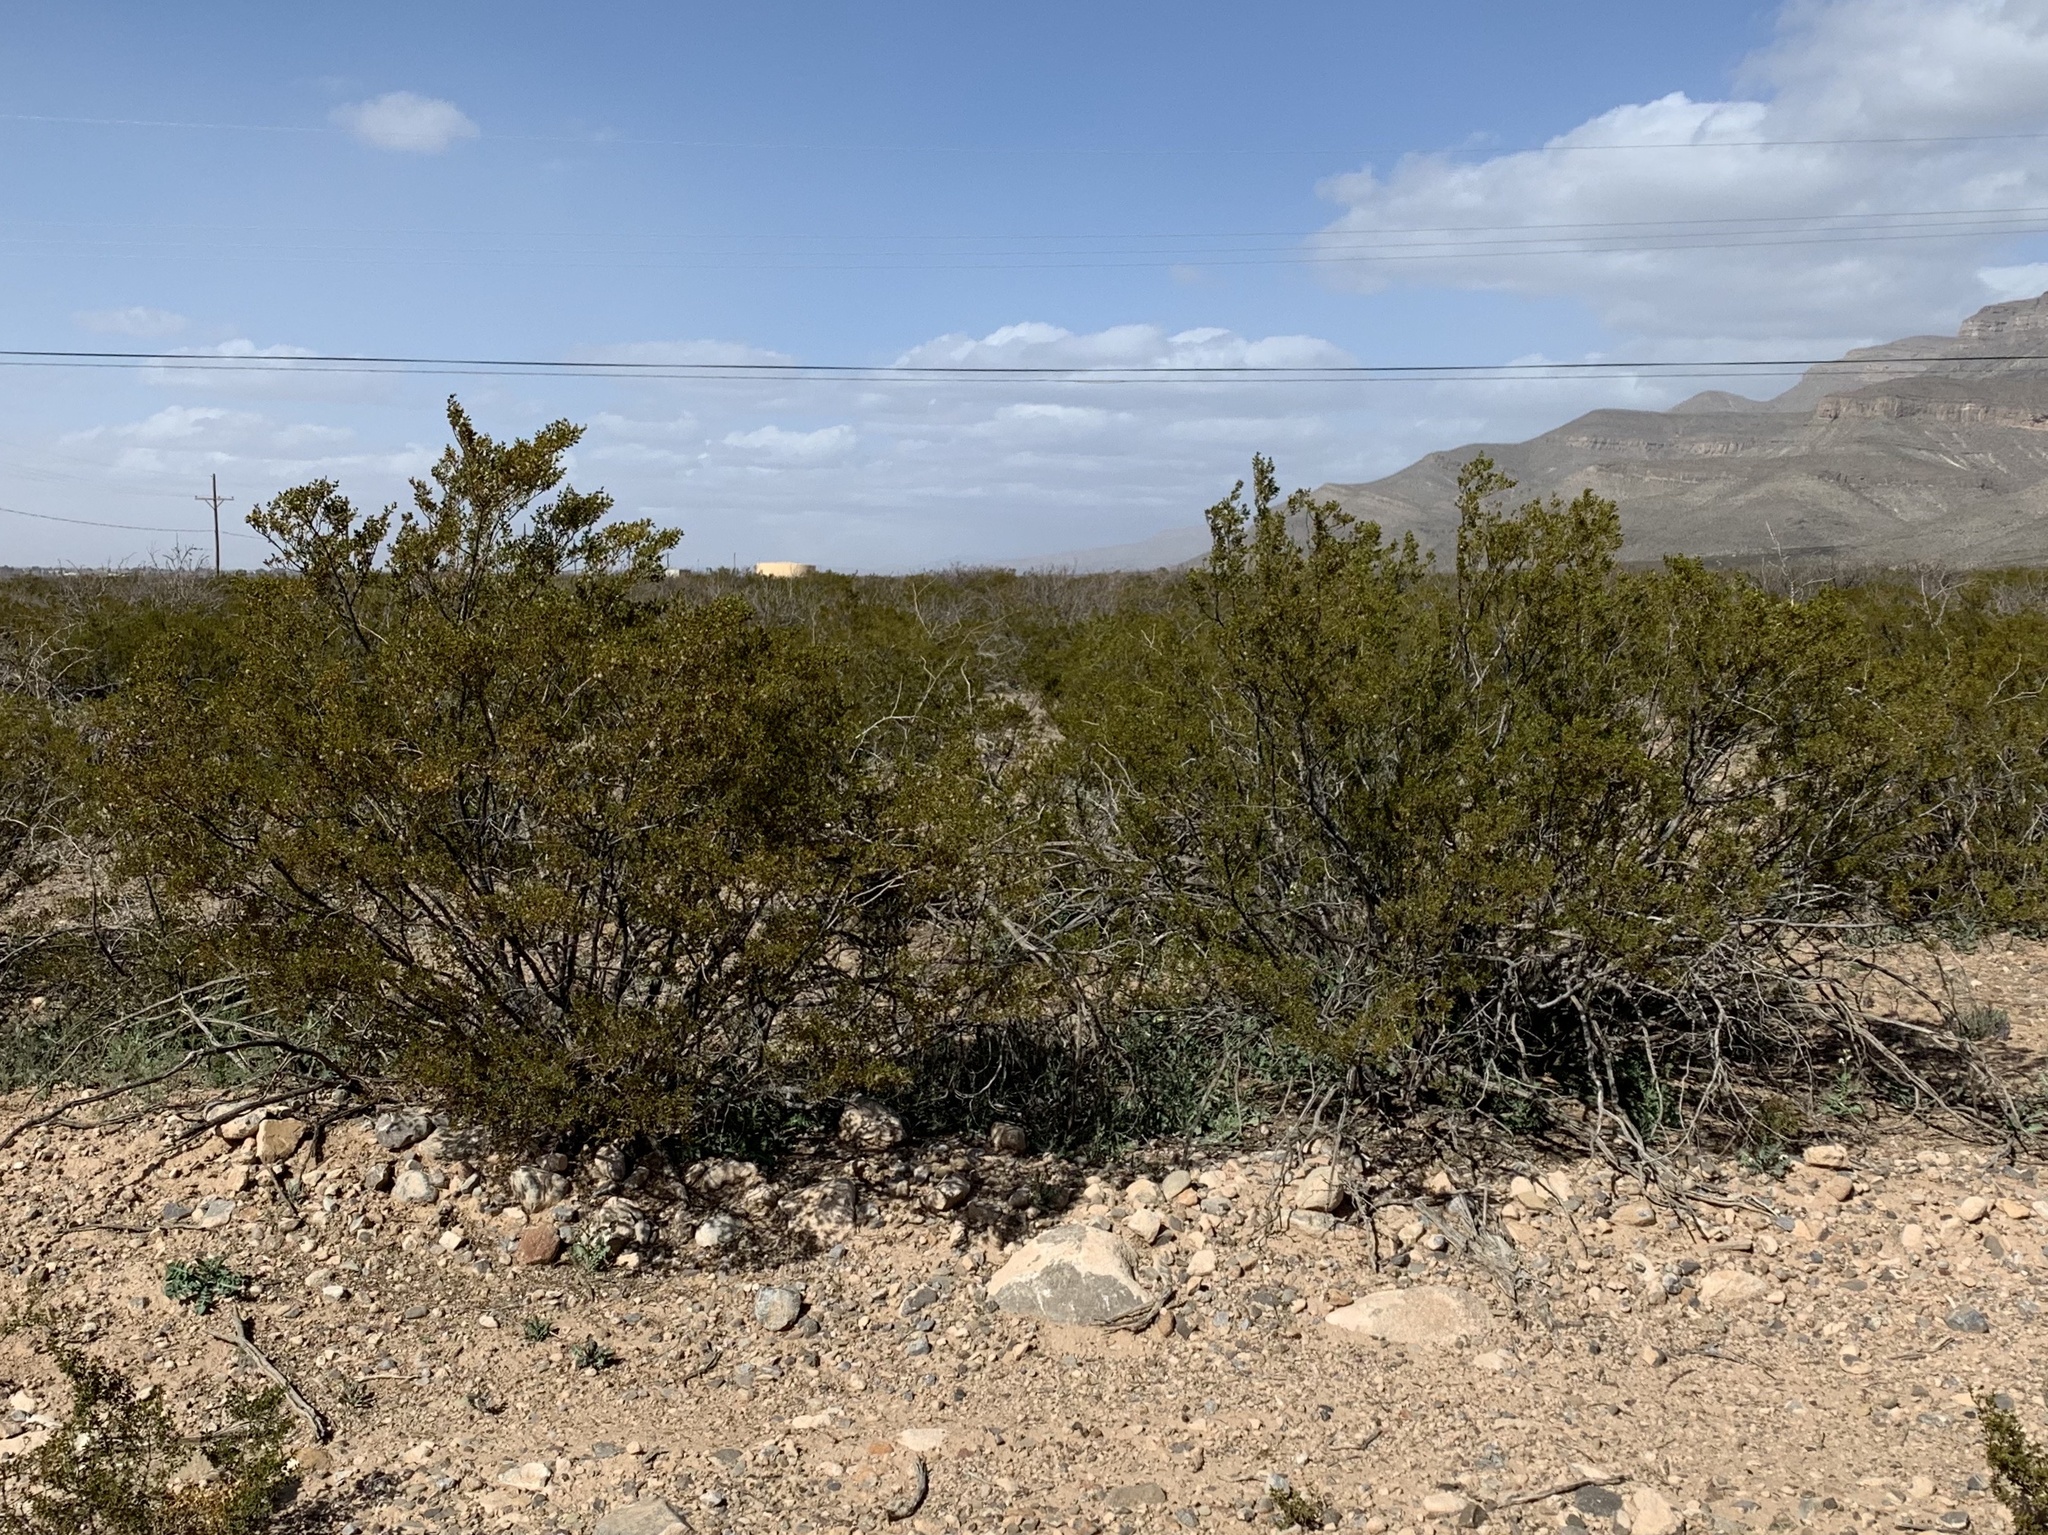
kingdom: Plantae
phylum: Tracheophyta
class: Magnoliopsida
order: Zygophyllales
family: Zygophyllaceae
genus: Larrea
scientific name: Larrea tridentata
